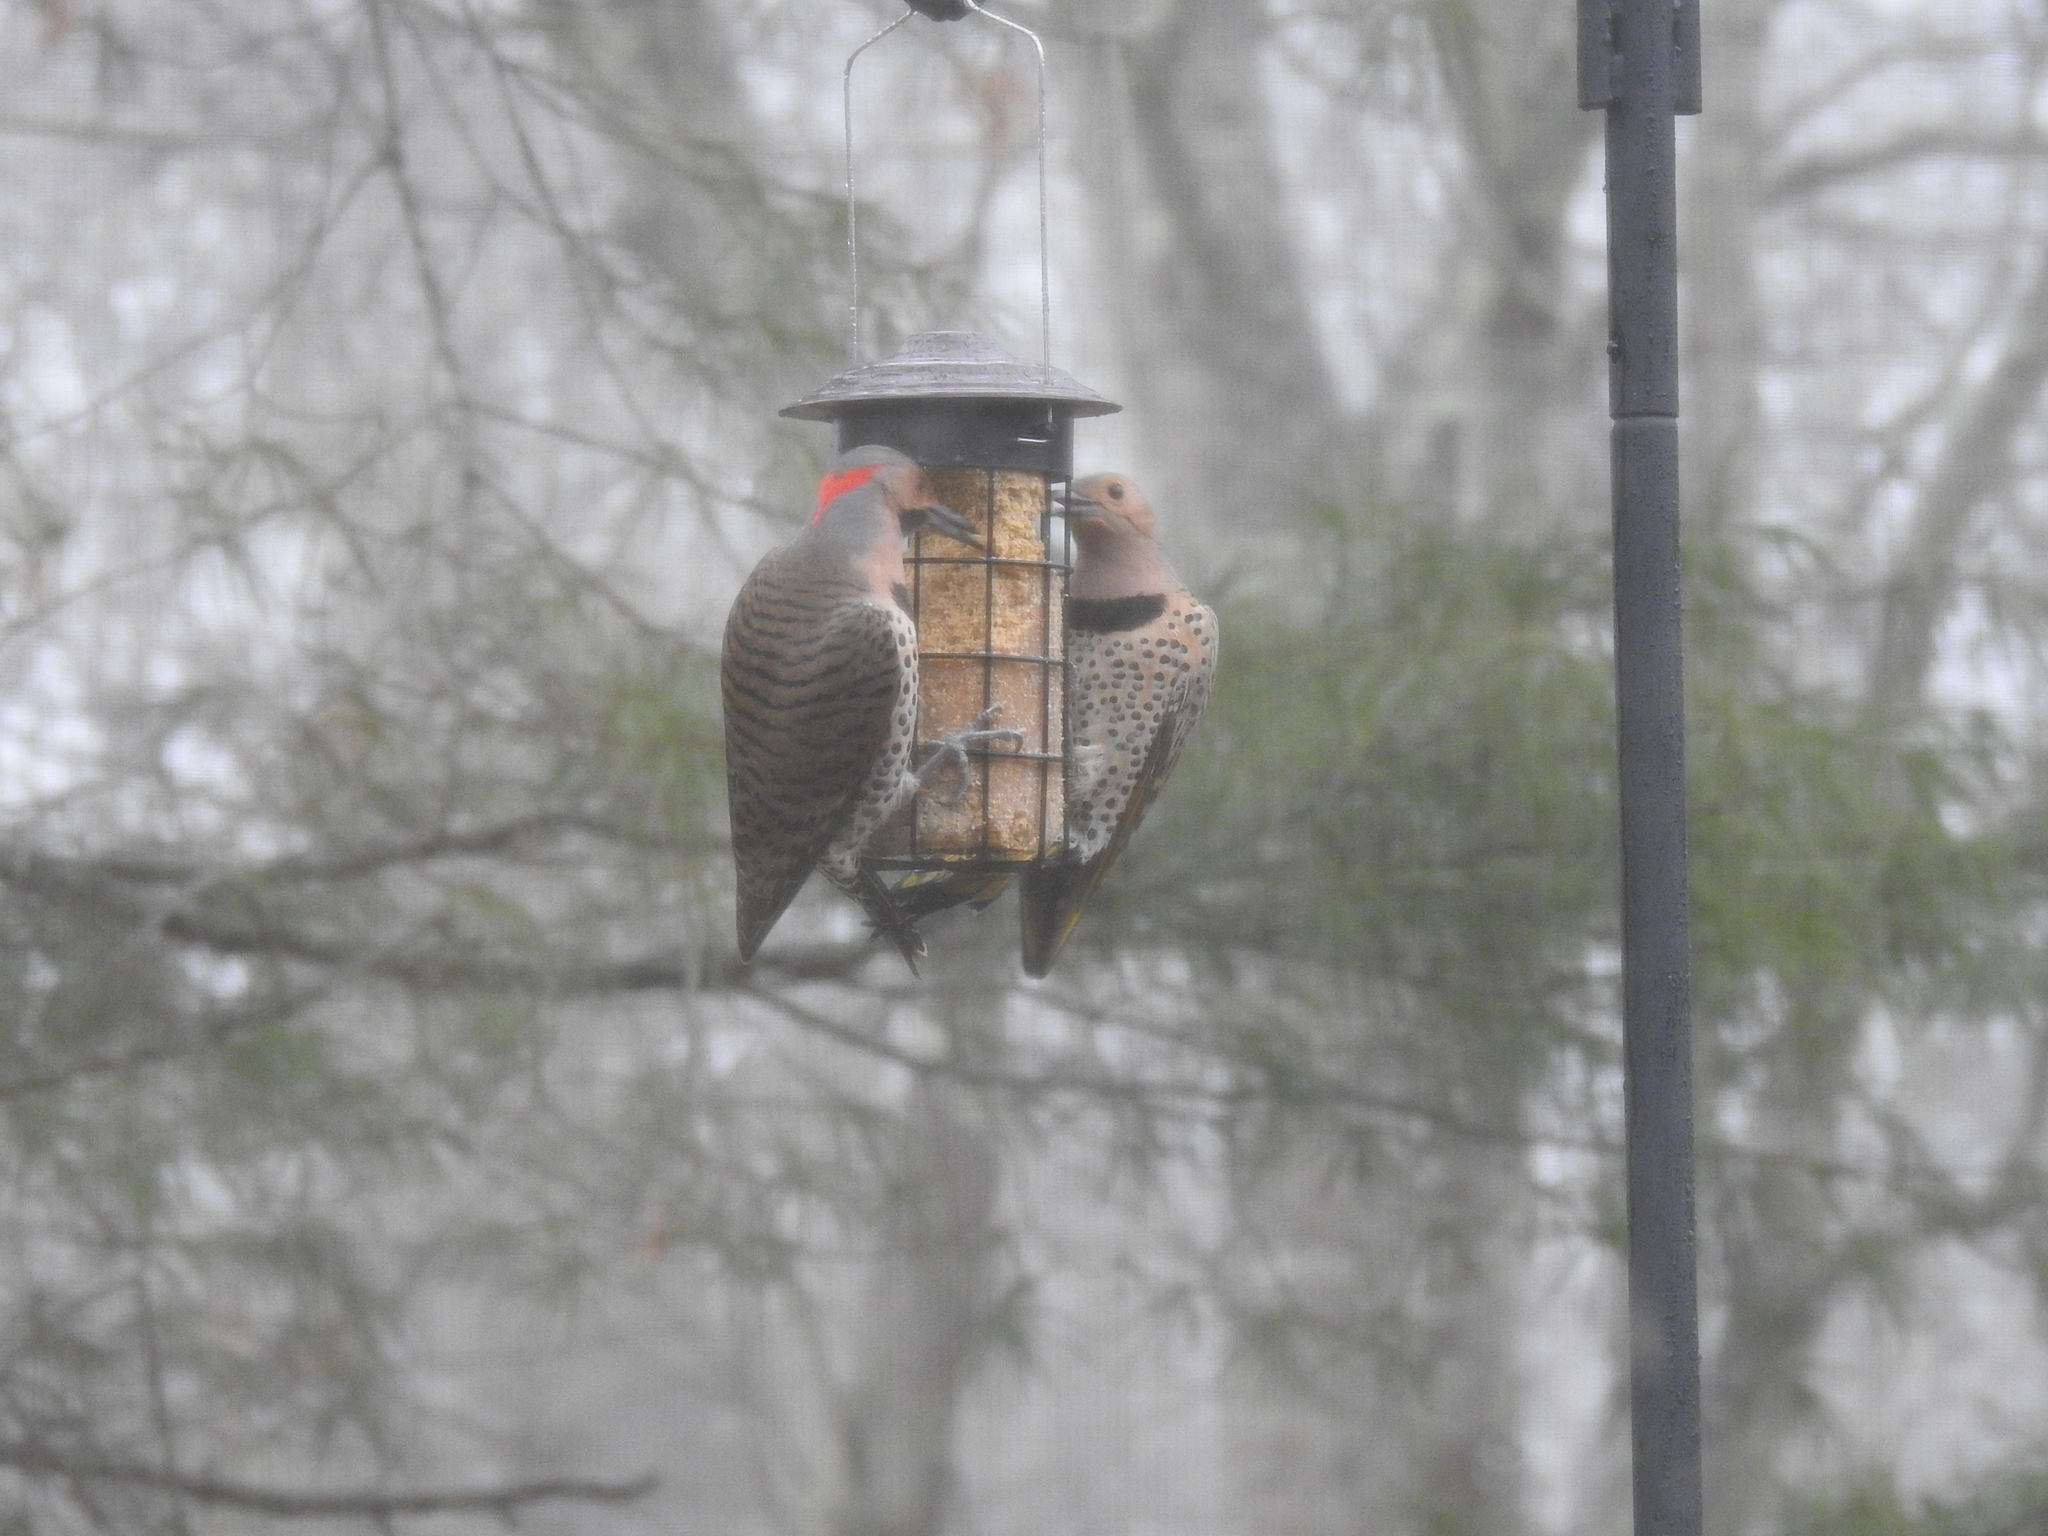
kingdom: Animalia
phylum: Chordata
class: Aves
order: Piciformes
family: Picidae
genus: Colaptes
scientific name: Colaptes auratus
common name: Northern flicker
